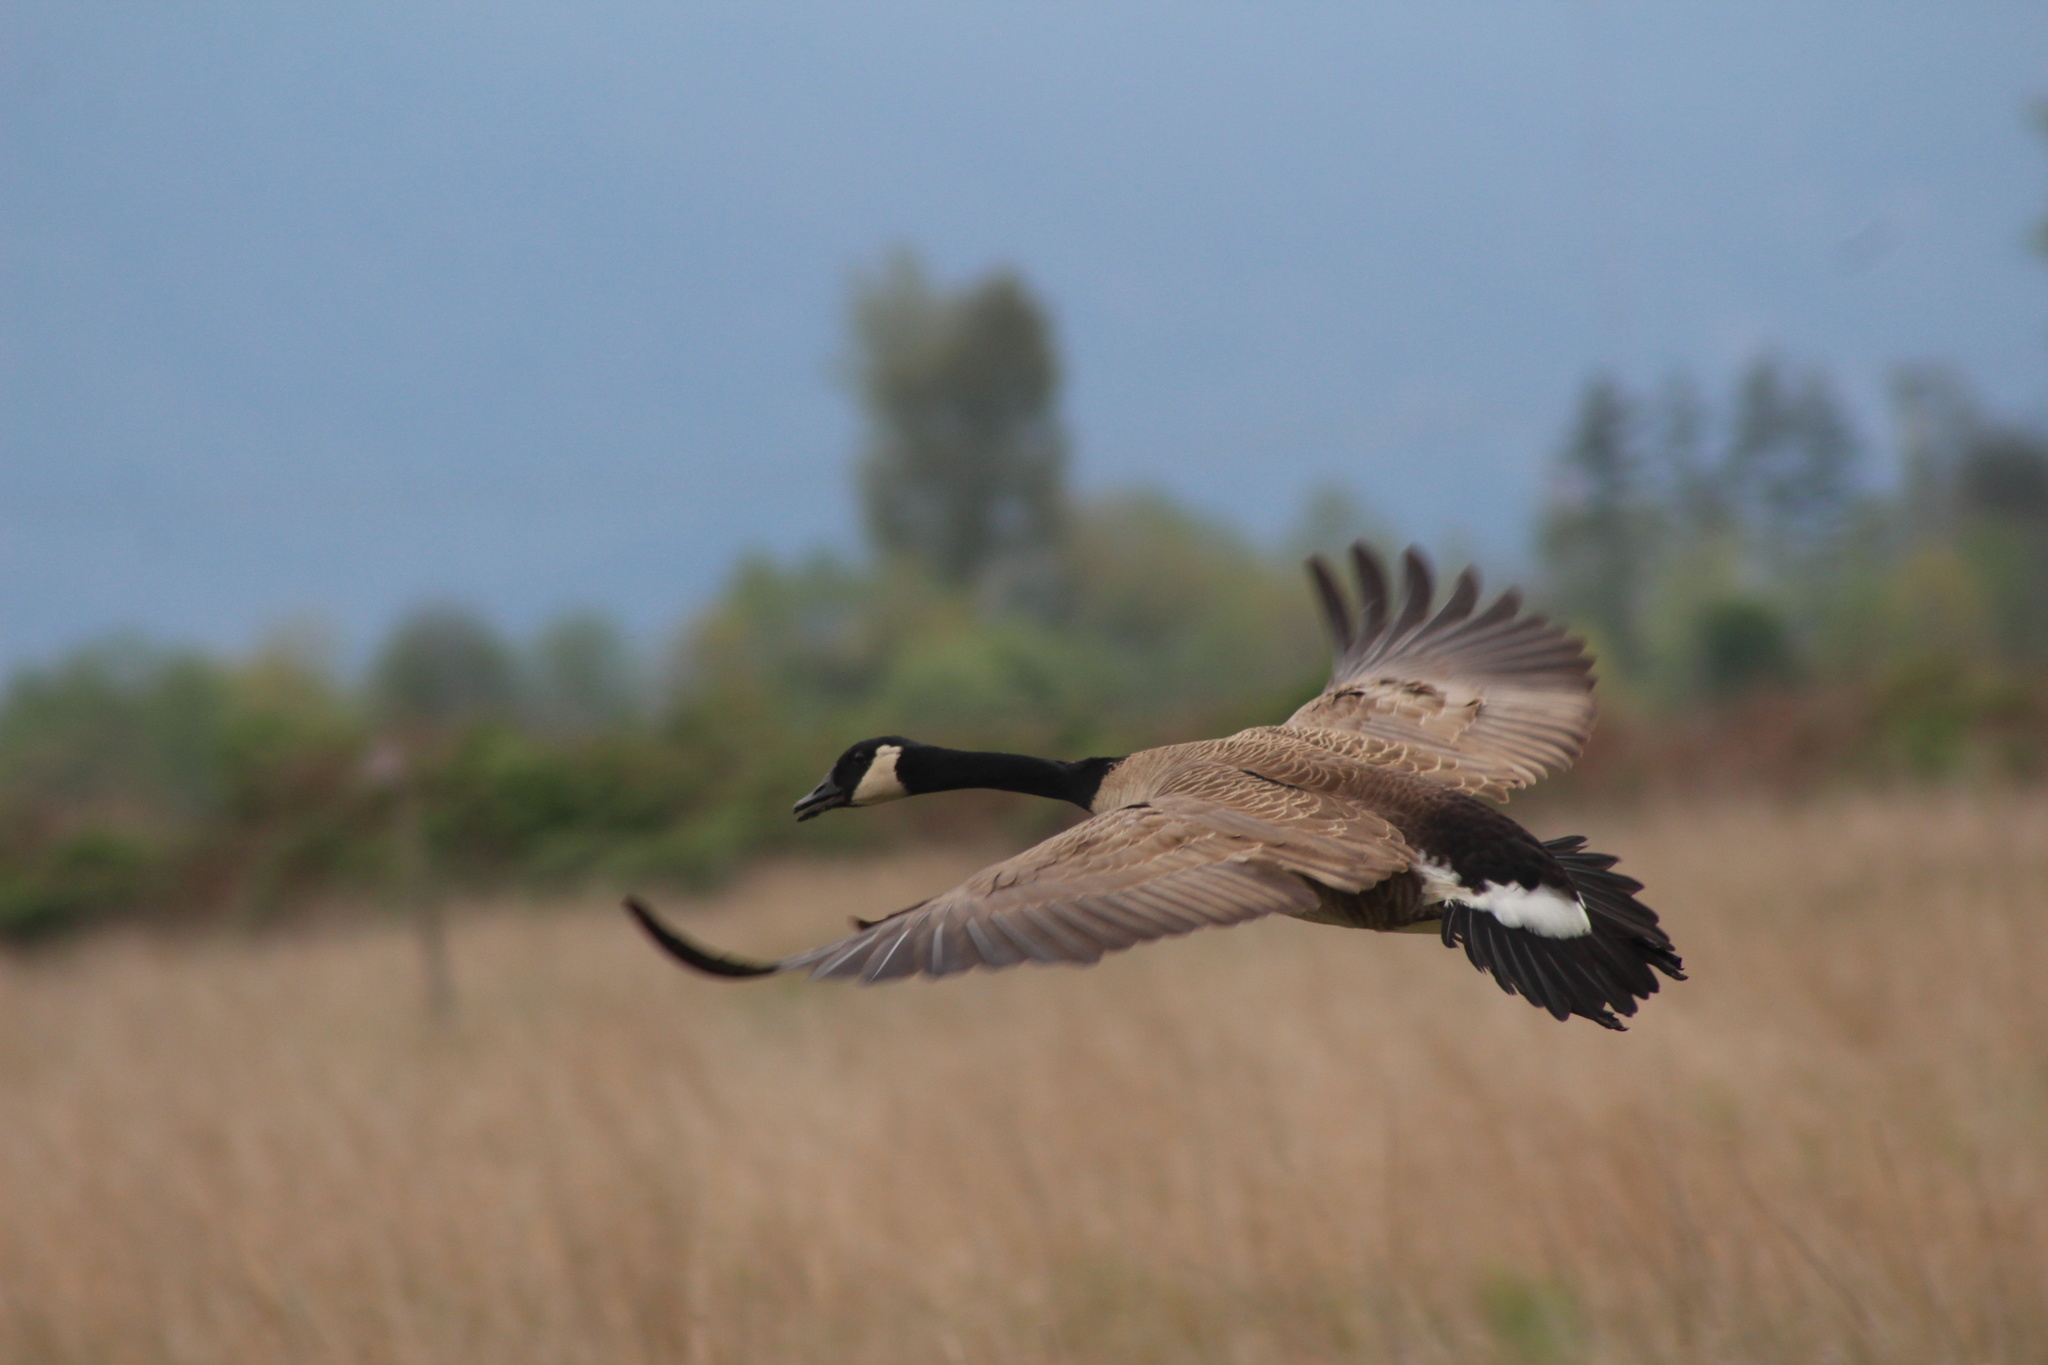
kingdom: Animalia
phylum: Chordata
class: Aves
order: Anseriformes
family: Anatidae
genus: Branta
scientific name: Branta canadensis
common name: Canada goose
